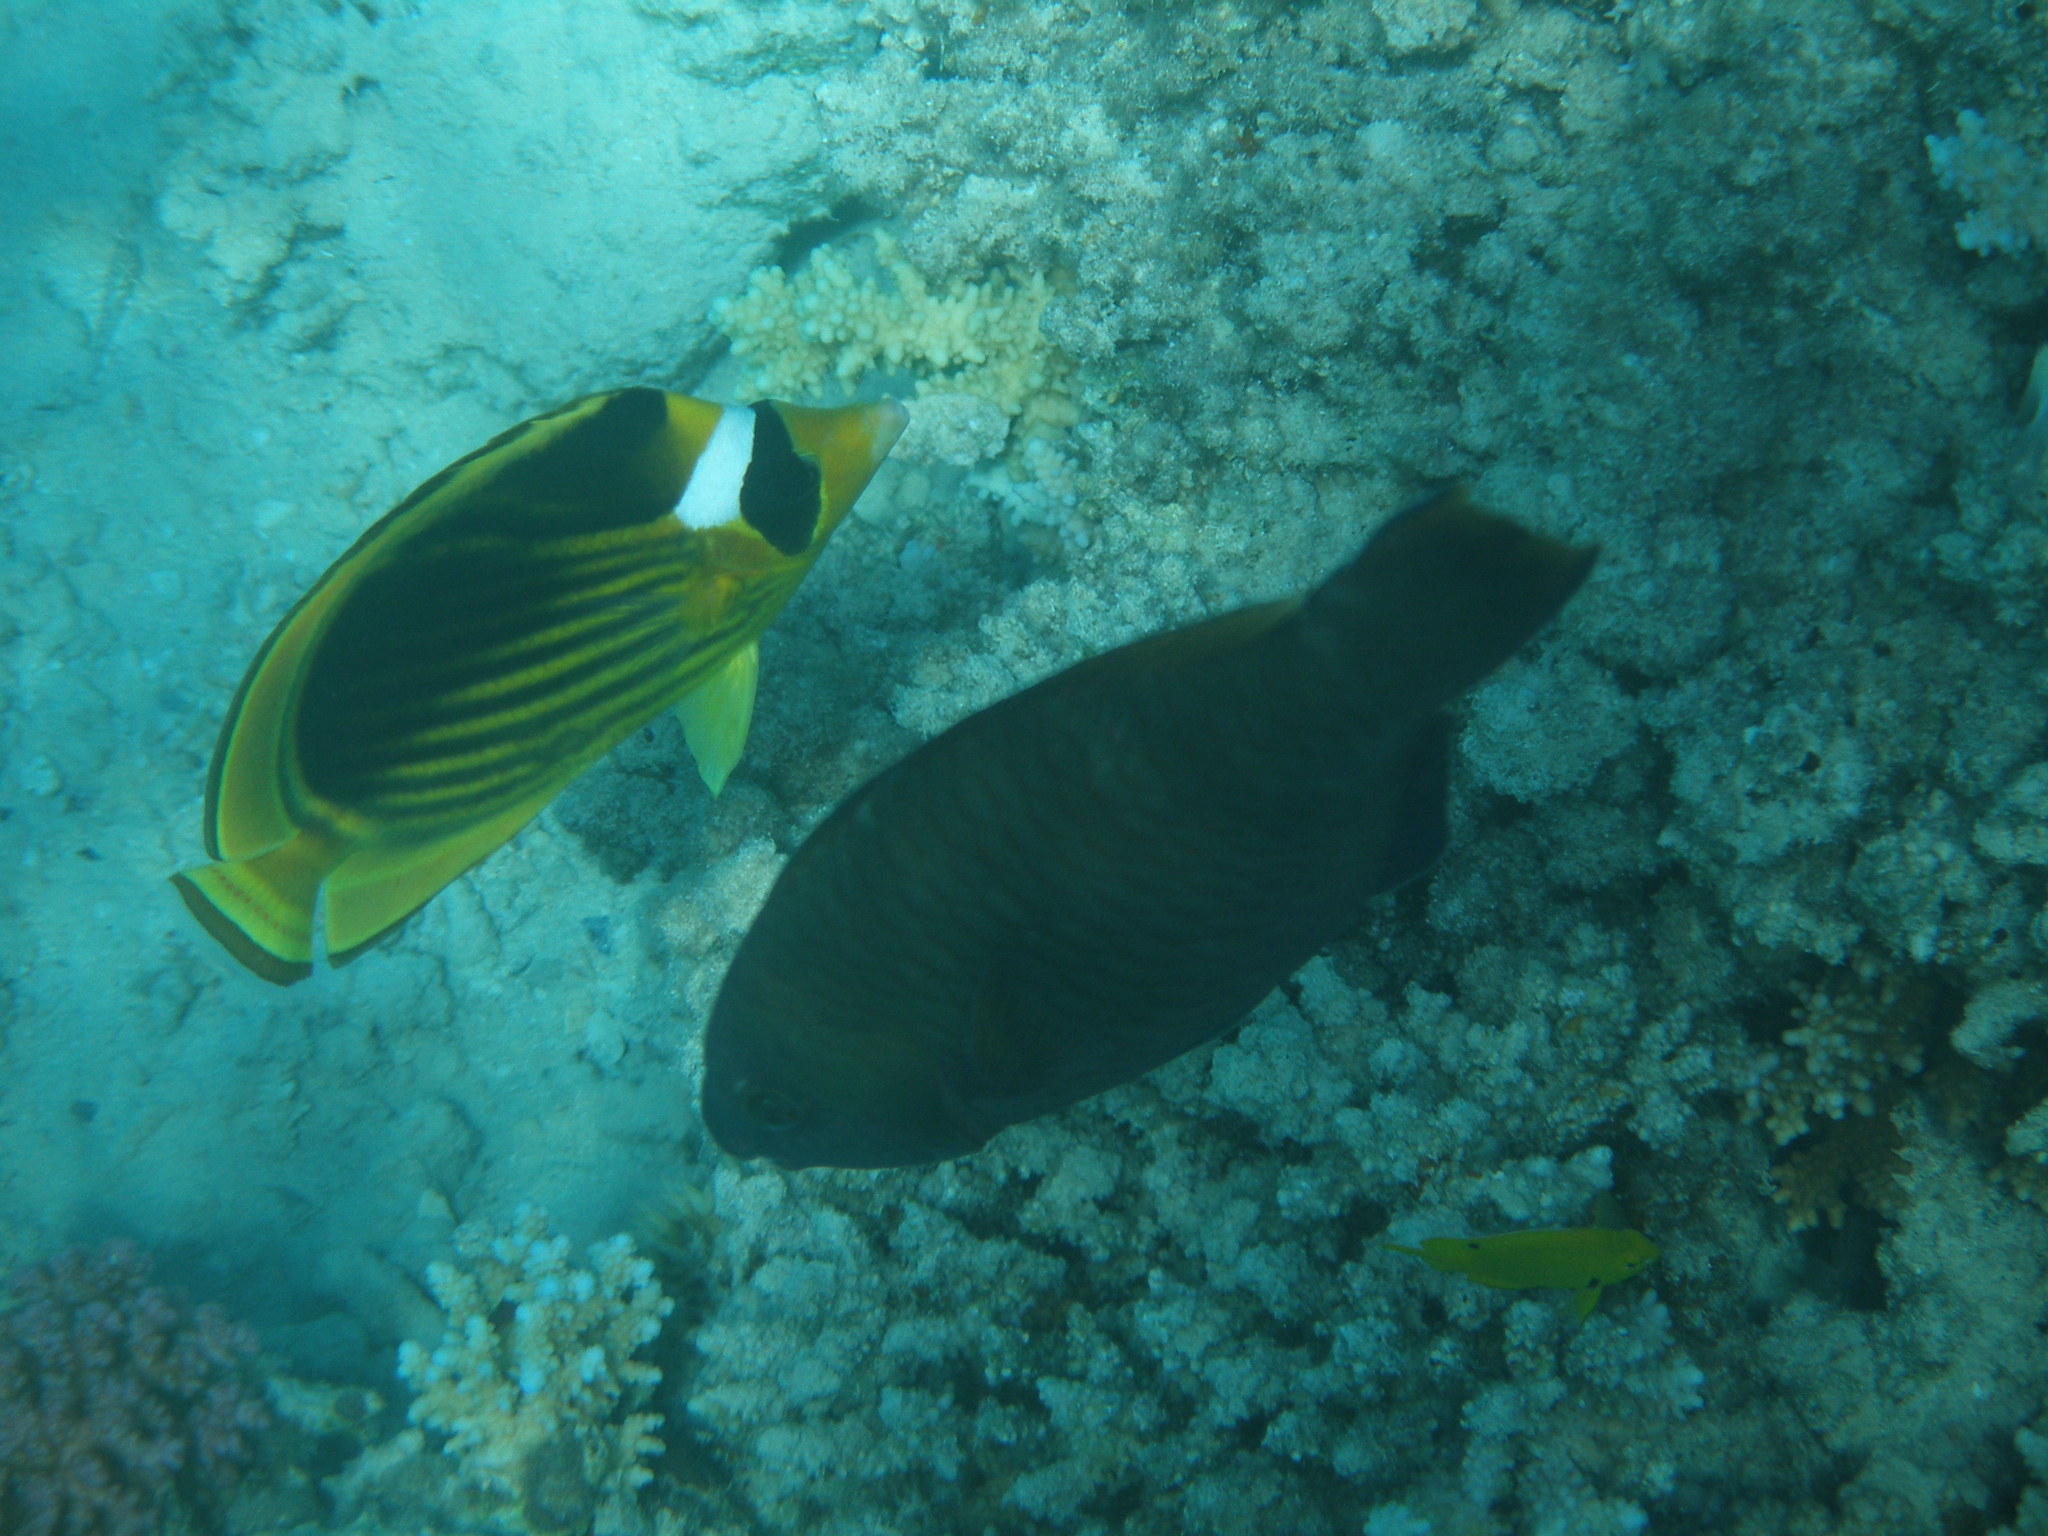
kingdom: Animalia
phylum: Chordata
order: Perciformes
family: Chaetodontidae
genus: Chaetodon
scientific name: Chaetodon fasciatus
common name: Diagonal butterflyfish
